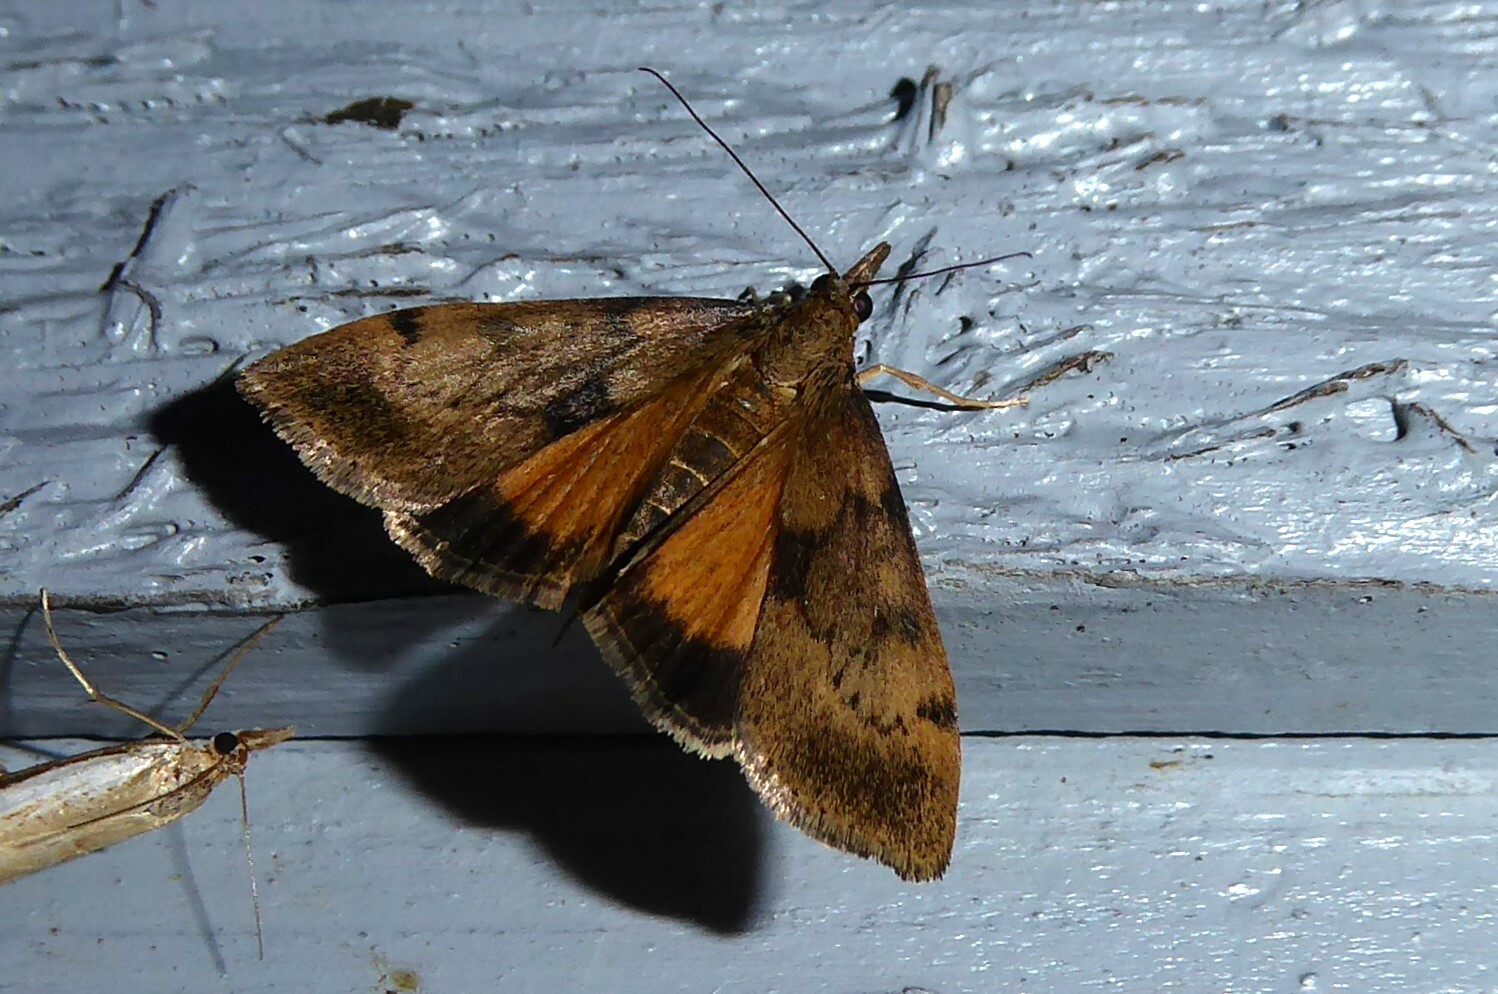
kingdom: Animalia
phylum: Arthropoda
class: Insecta
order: Lepidoptera
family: Crambidae
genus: Uresiphita
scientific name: Uresiphita
